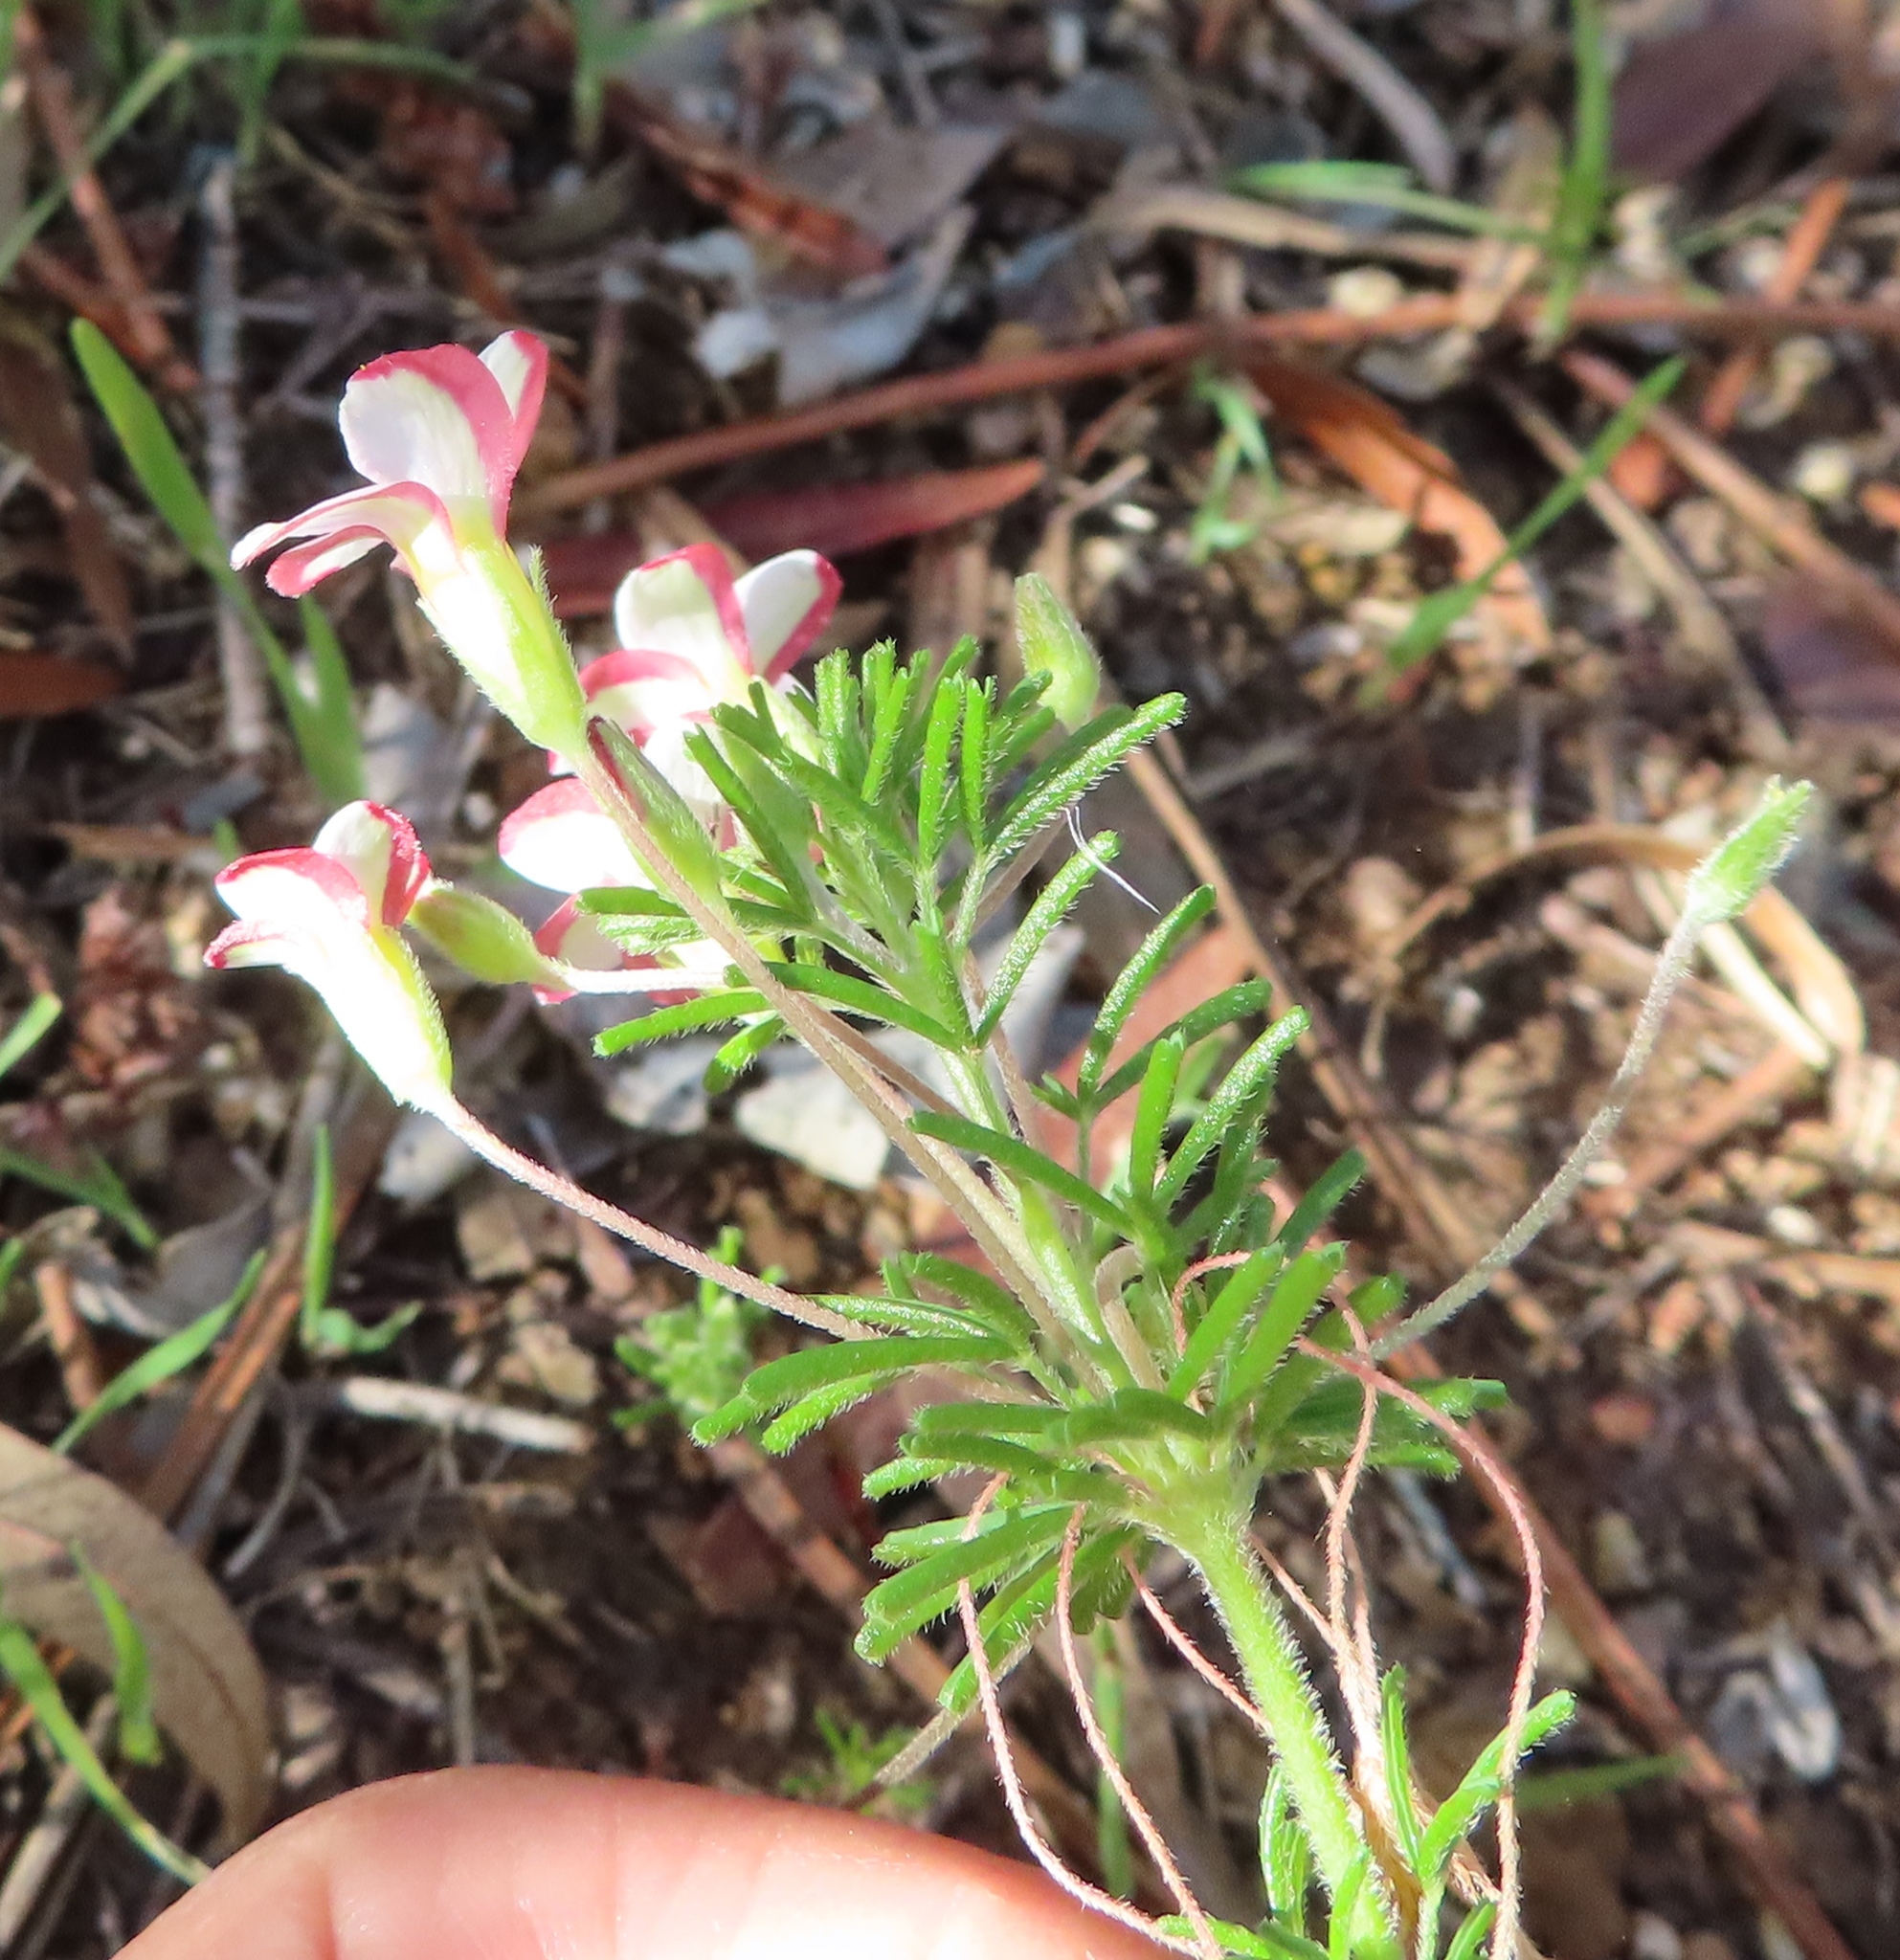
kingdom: Plantae
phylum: Tracheophyta
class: Magnoliopsida
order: Oxalidales
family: Oxalidaceae
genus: Oxalis
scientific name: Oxalis tenuifolia
